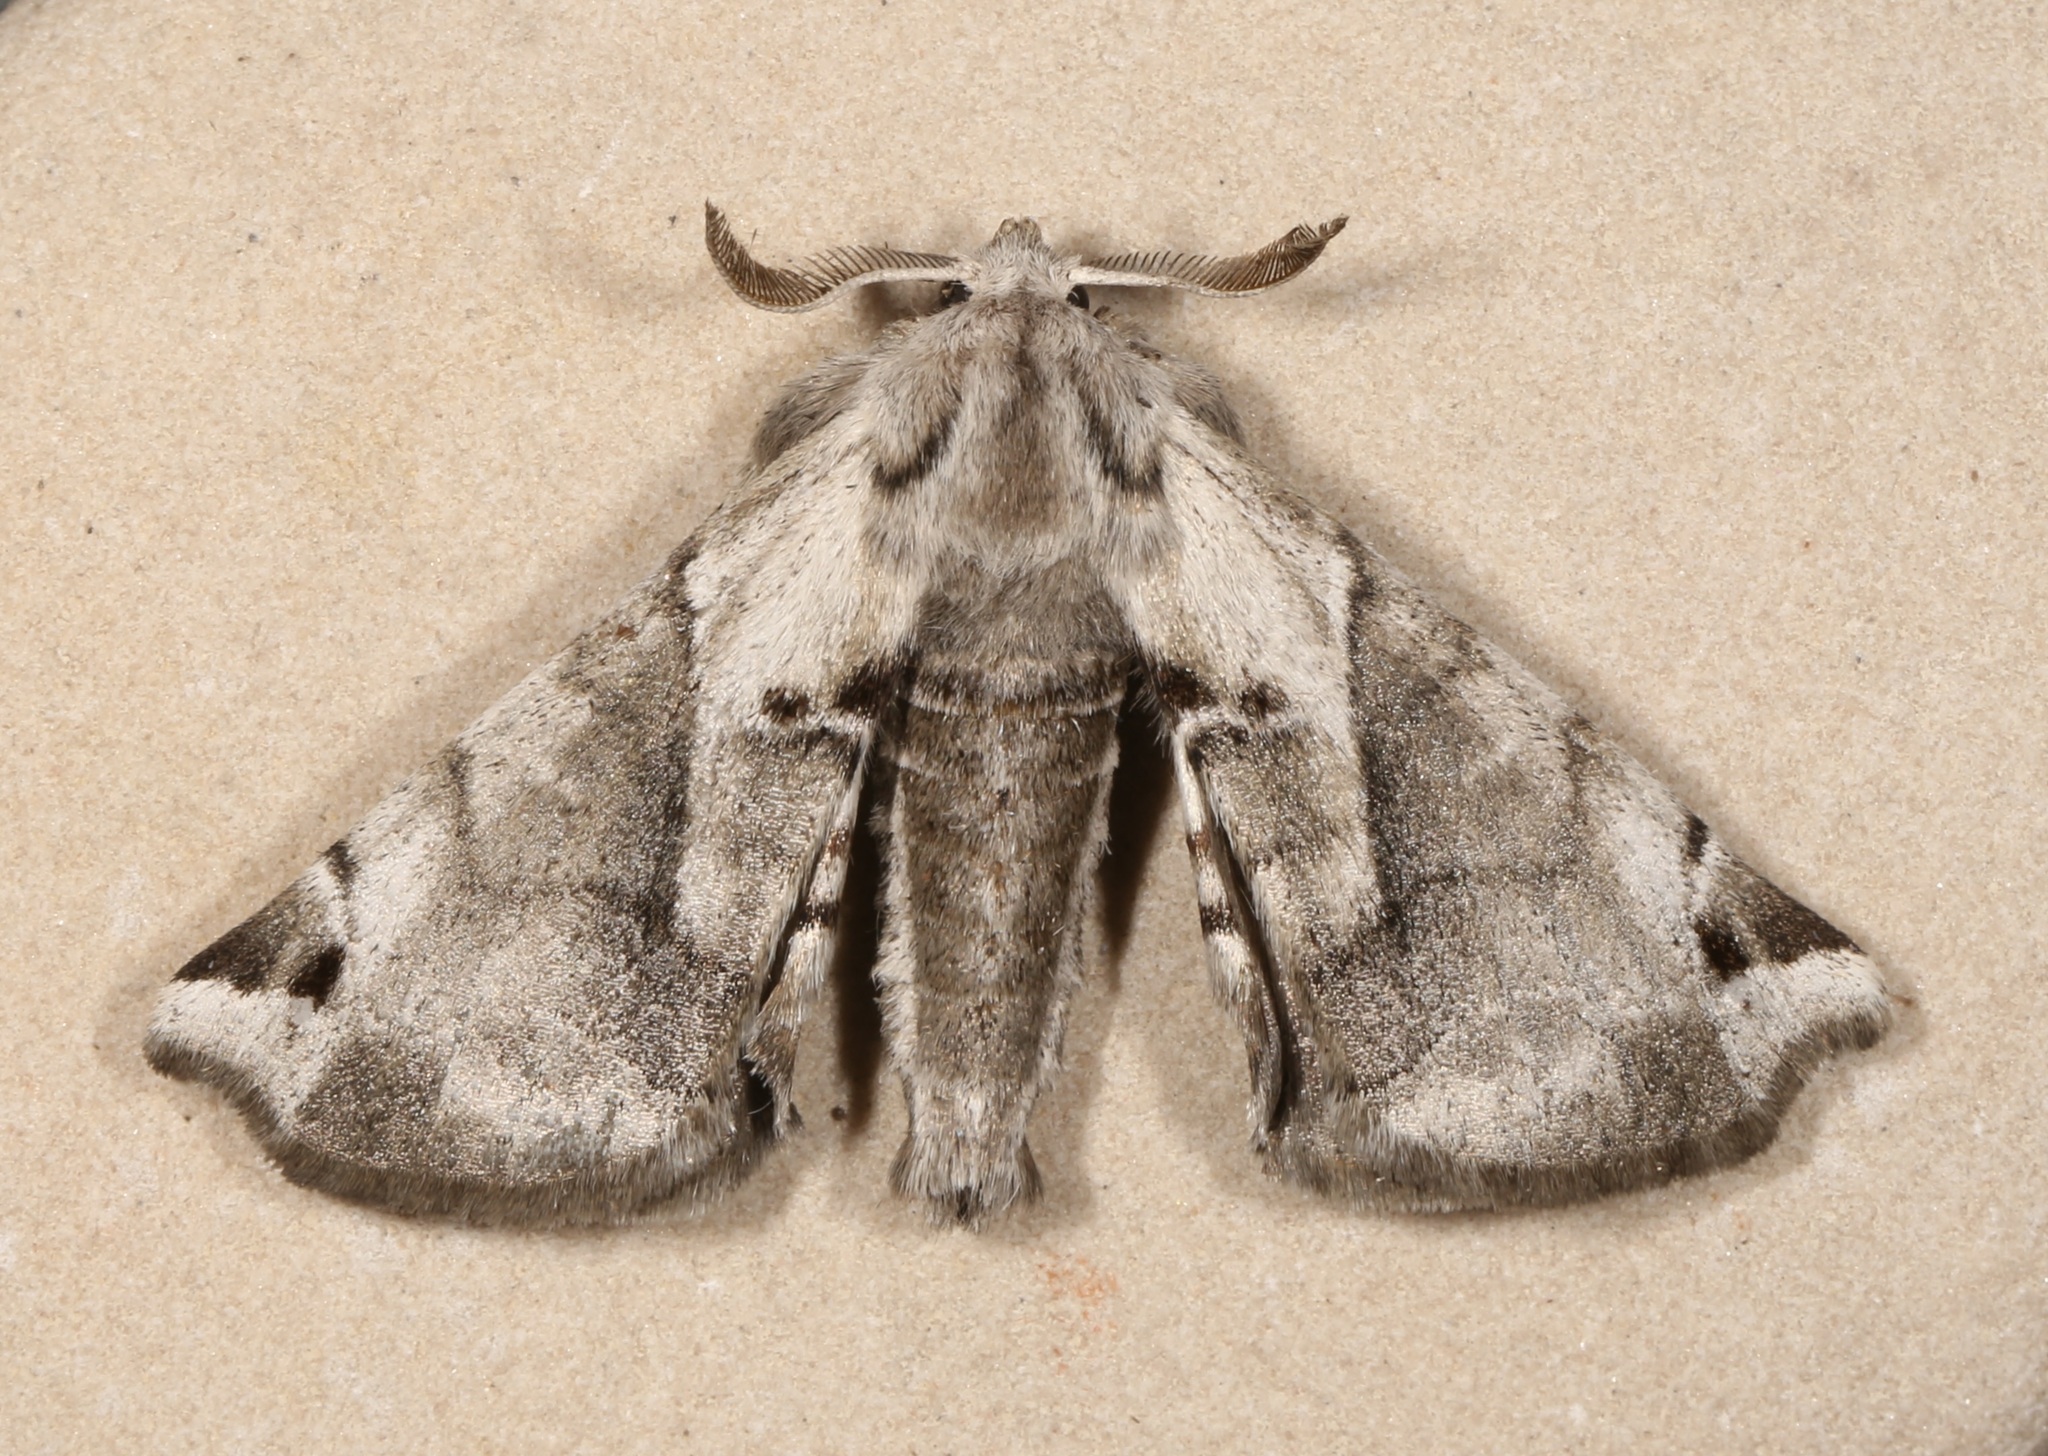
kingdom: Animalia
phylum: Arthropoda
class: Insecta
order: Lepidoptera
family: Apatelodidae
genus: Hygrochroa
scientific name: Hygrochroa Apatelodes pudefacta
